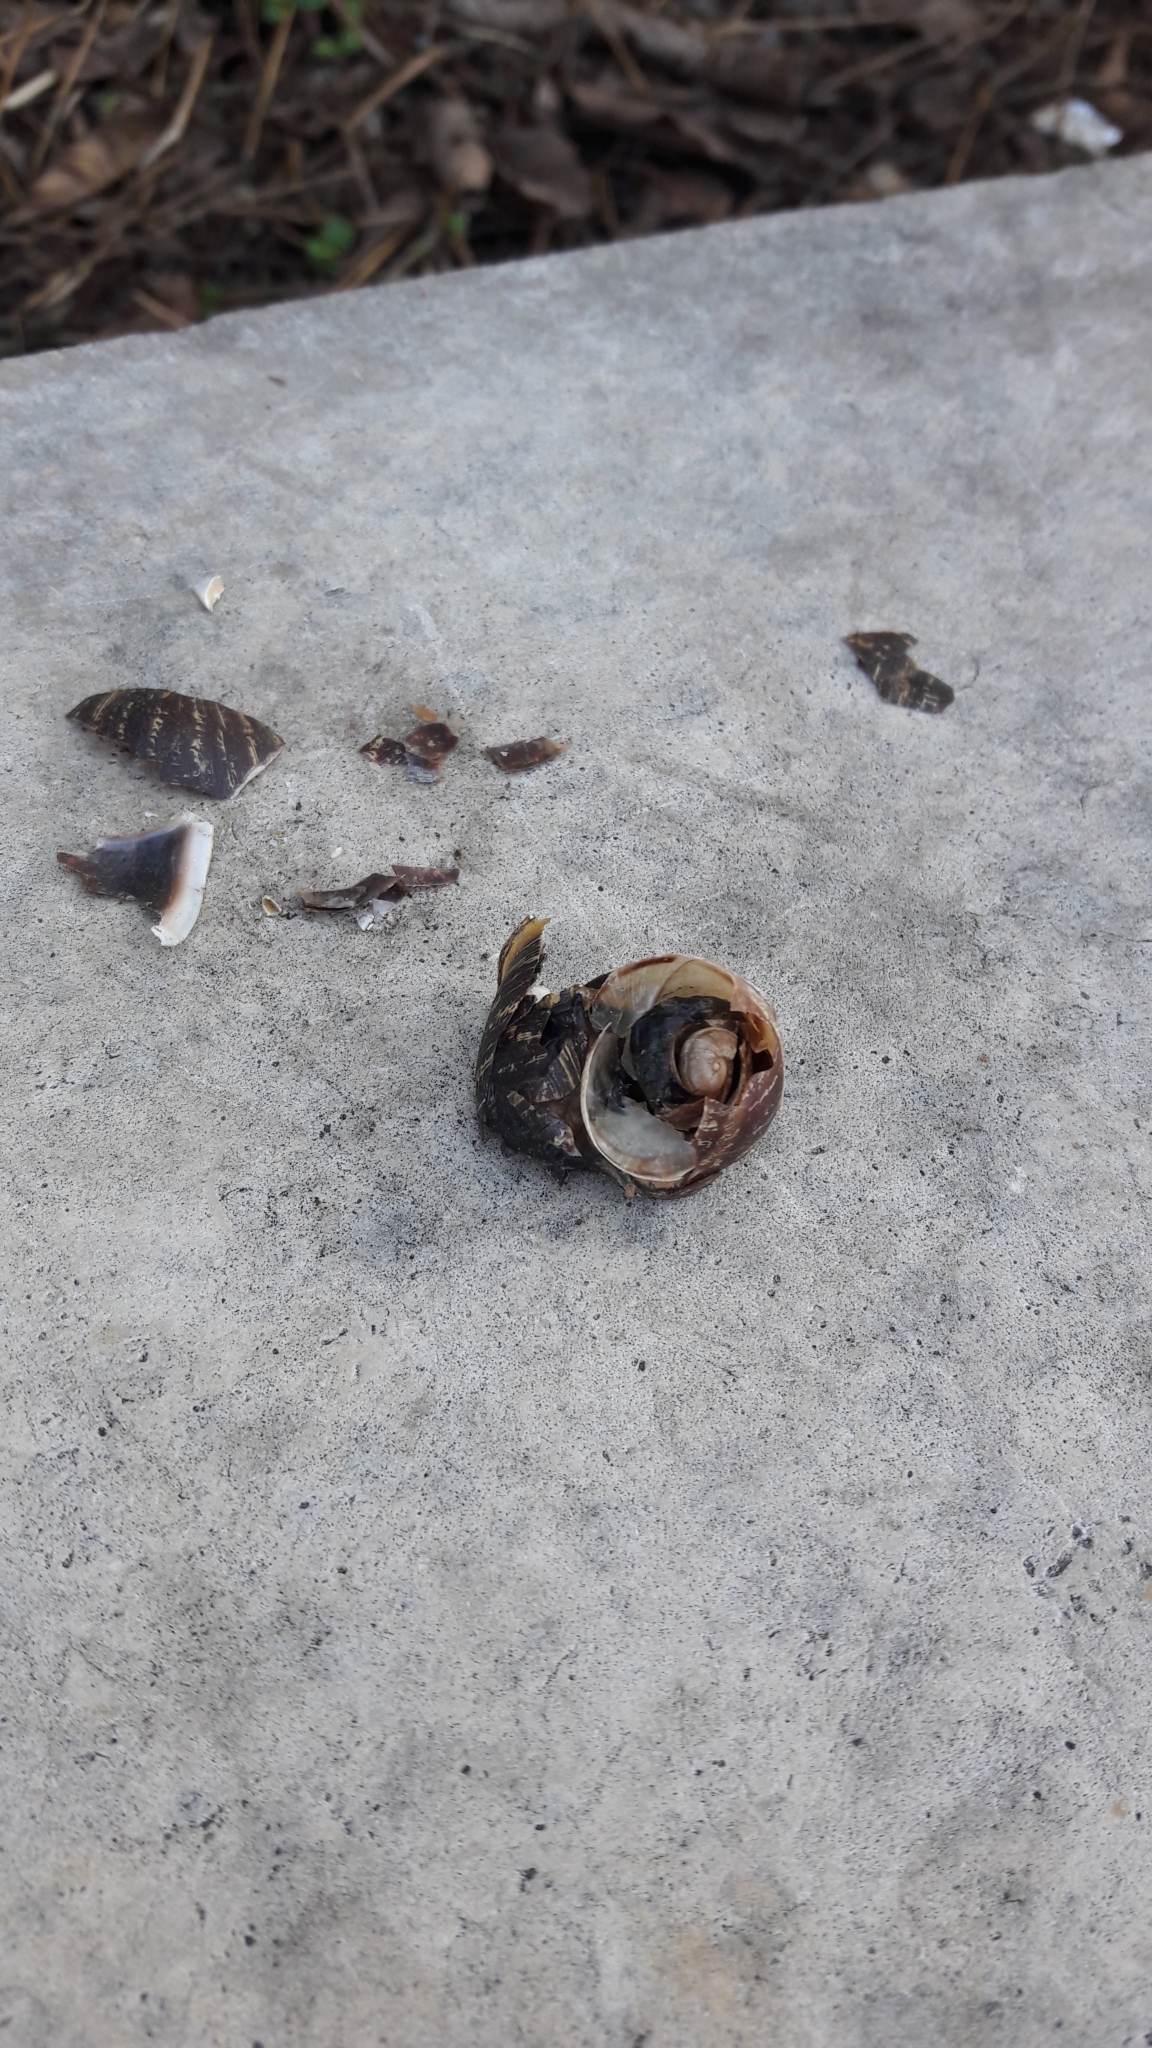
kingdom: Animalia
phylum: Mollusca
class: Gastropoda
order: Stylommatophora
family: Helicidae
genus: Cornu
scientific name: Cornu aspersum
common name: Brown garden snail
